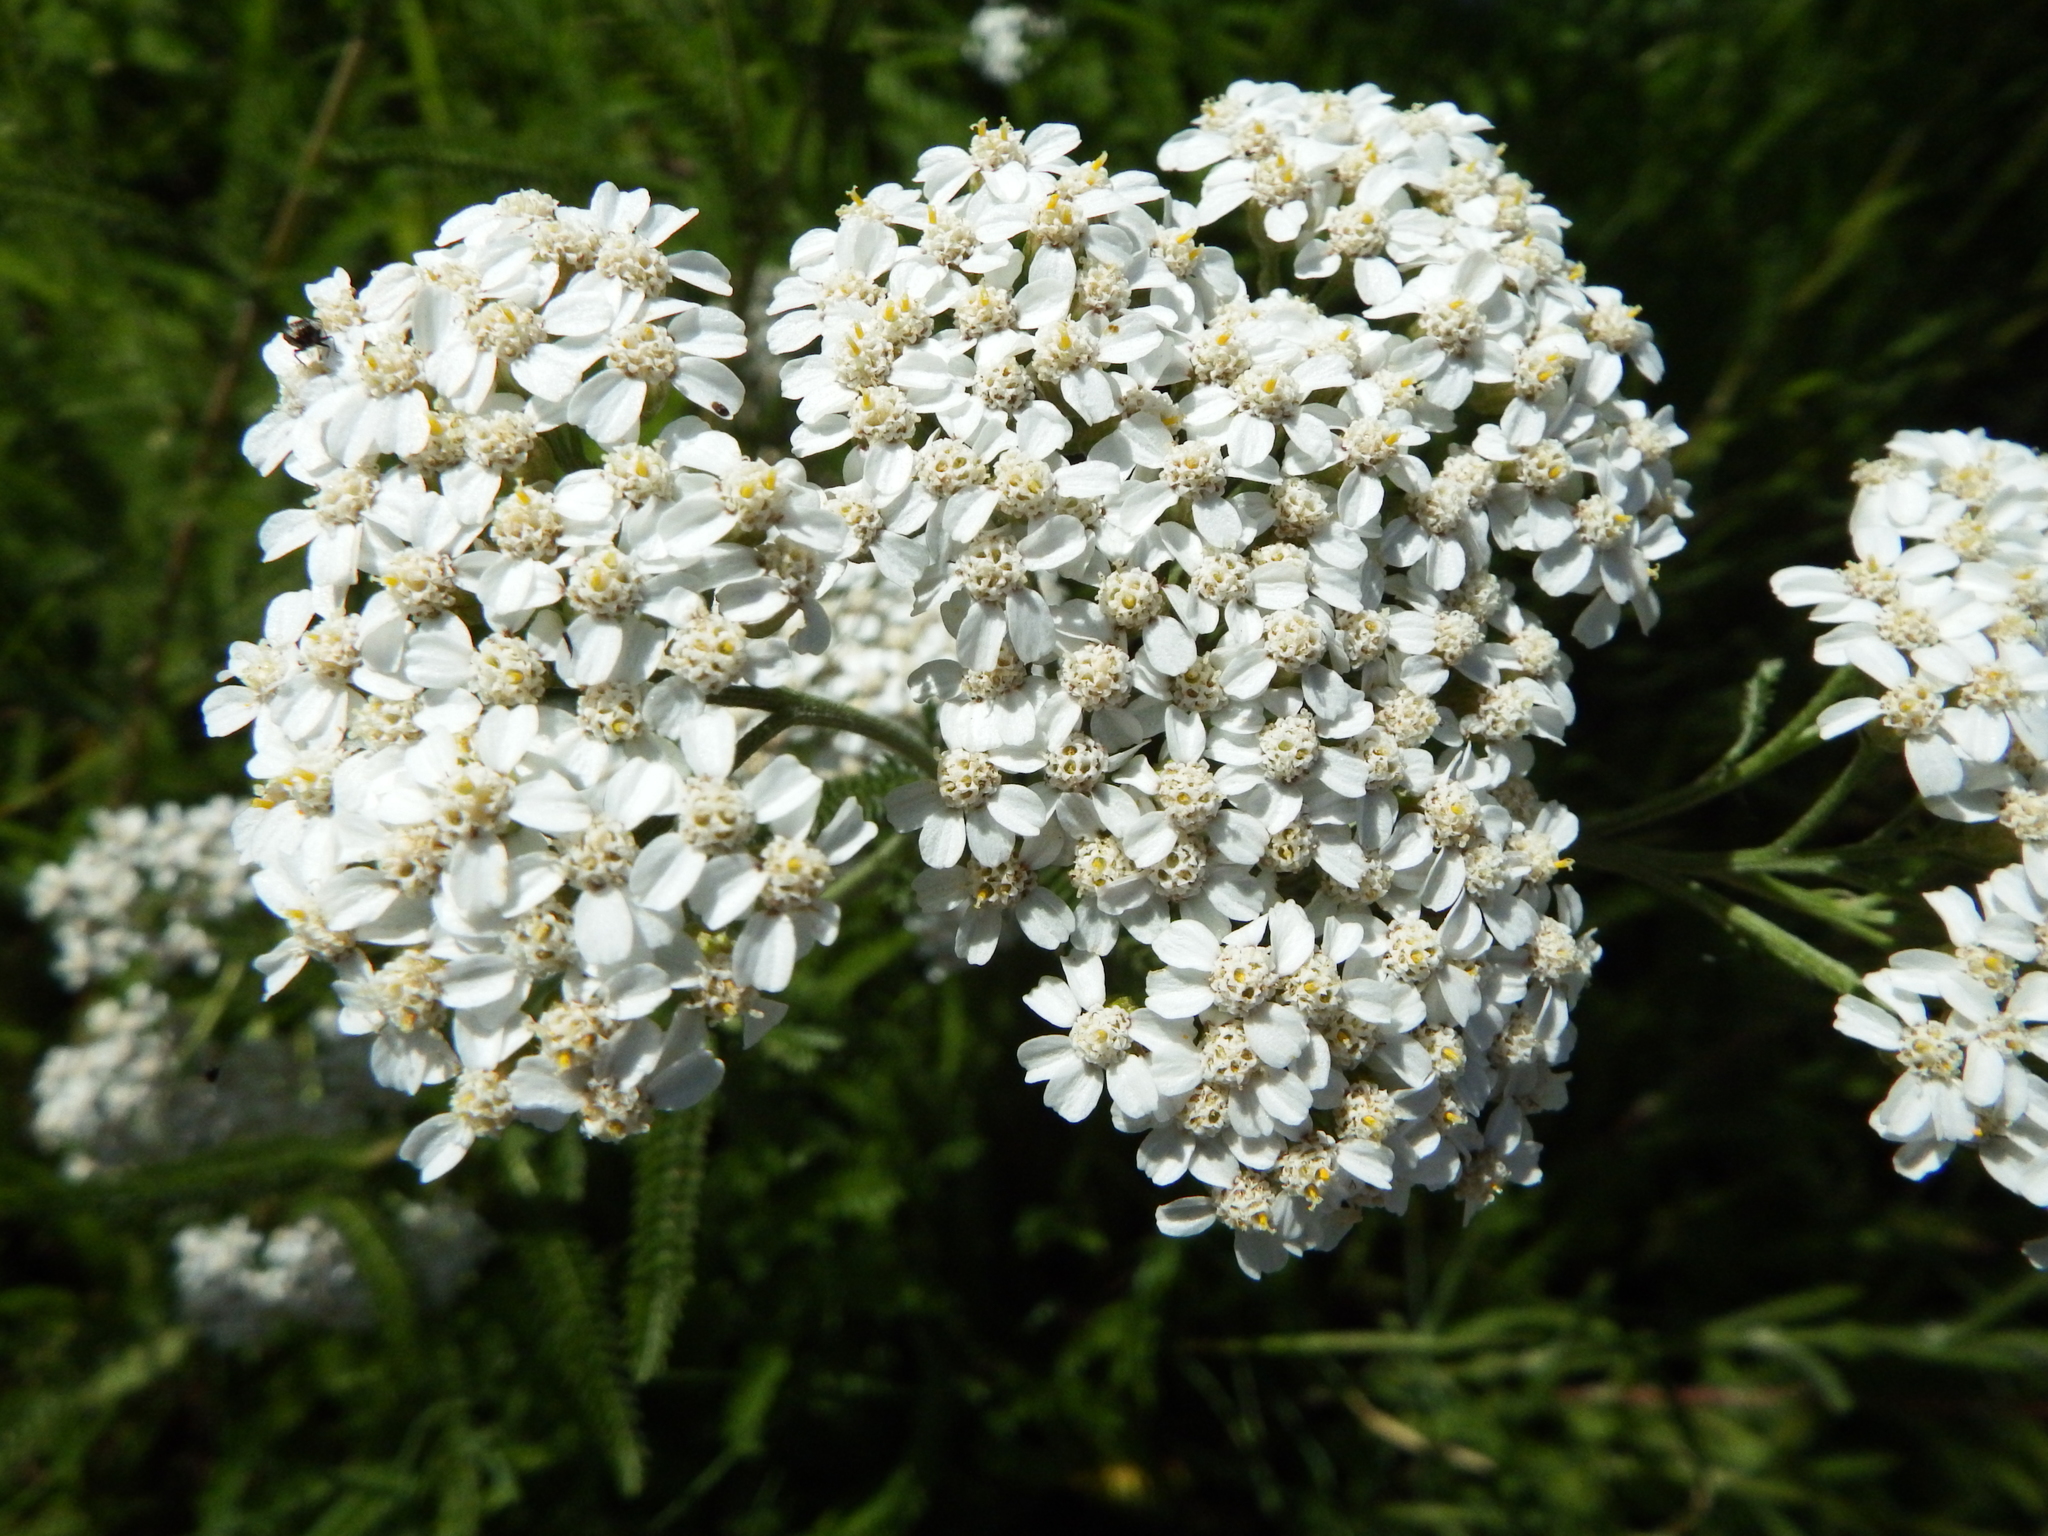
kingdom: Plantae
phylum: Tracheophyta
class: Magnoliopsida
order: Asterales
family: Asteraceae
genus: Achillea
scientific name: Achillea millefolium
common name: Yarrow
